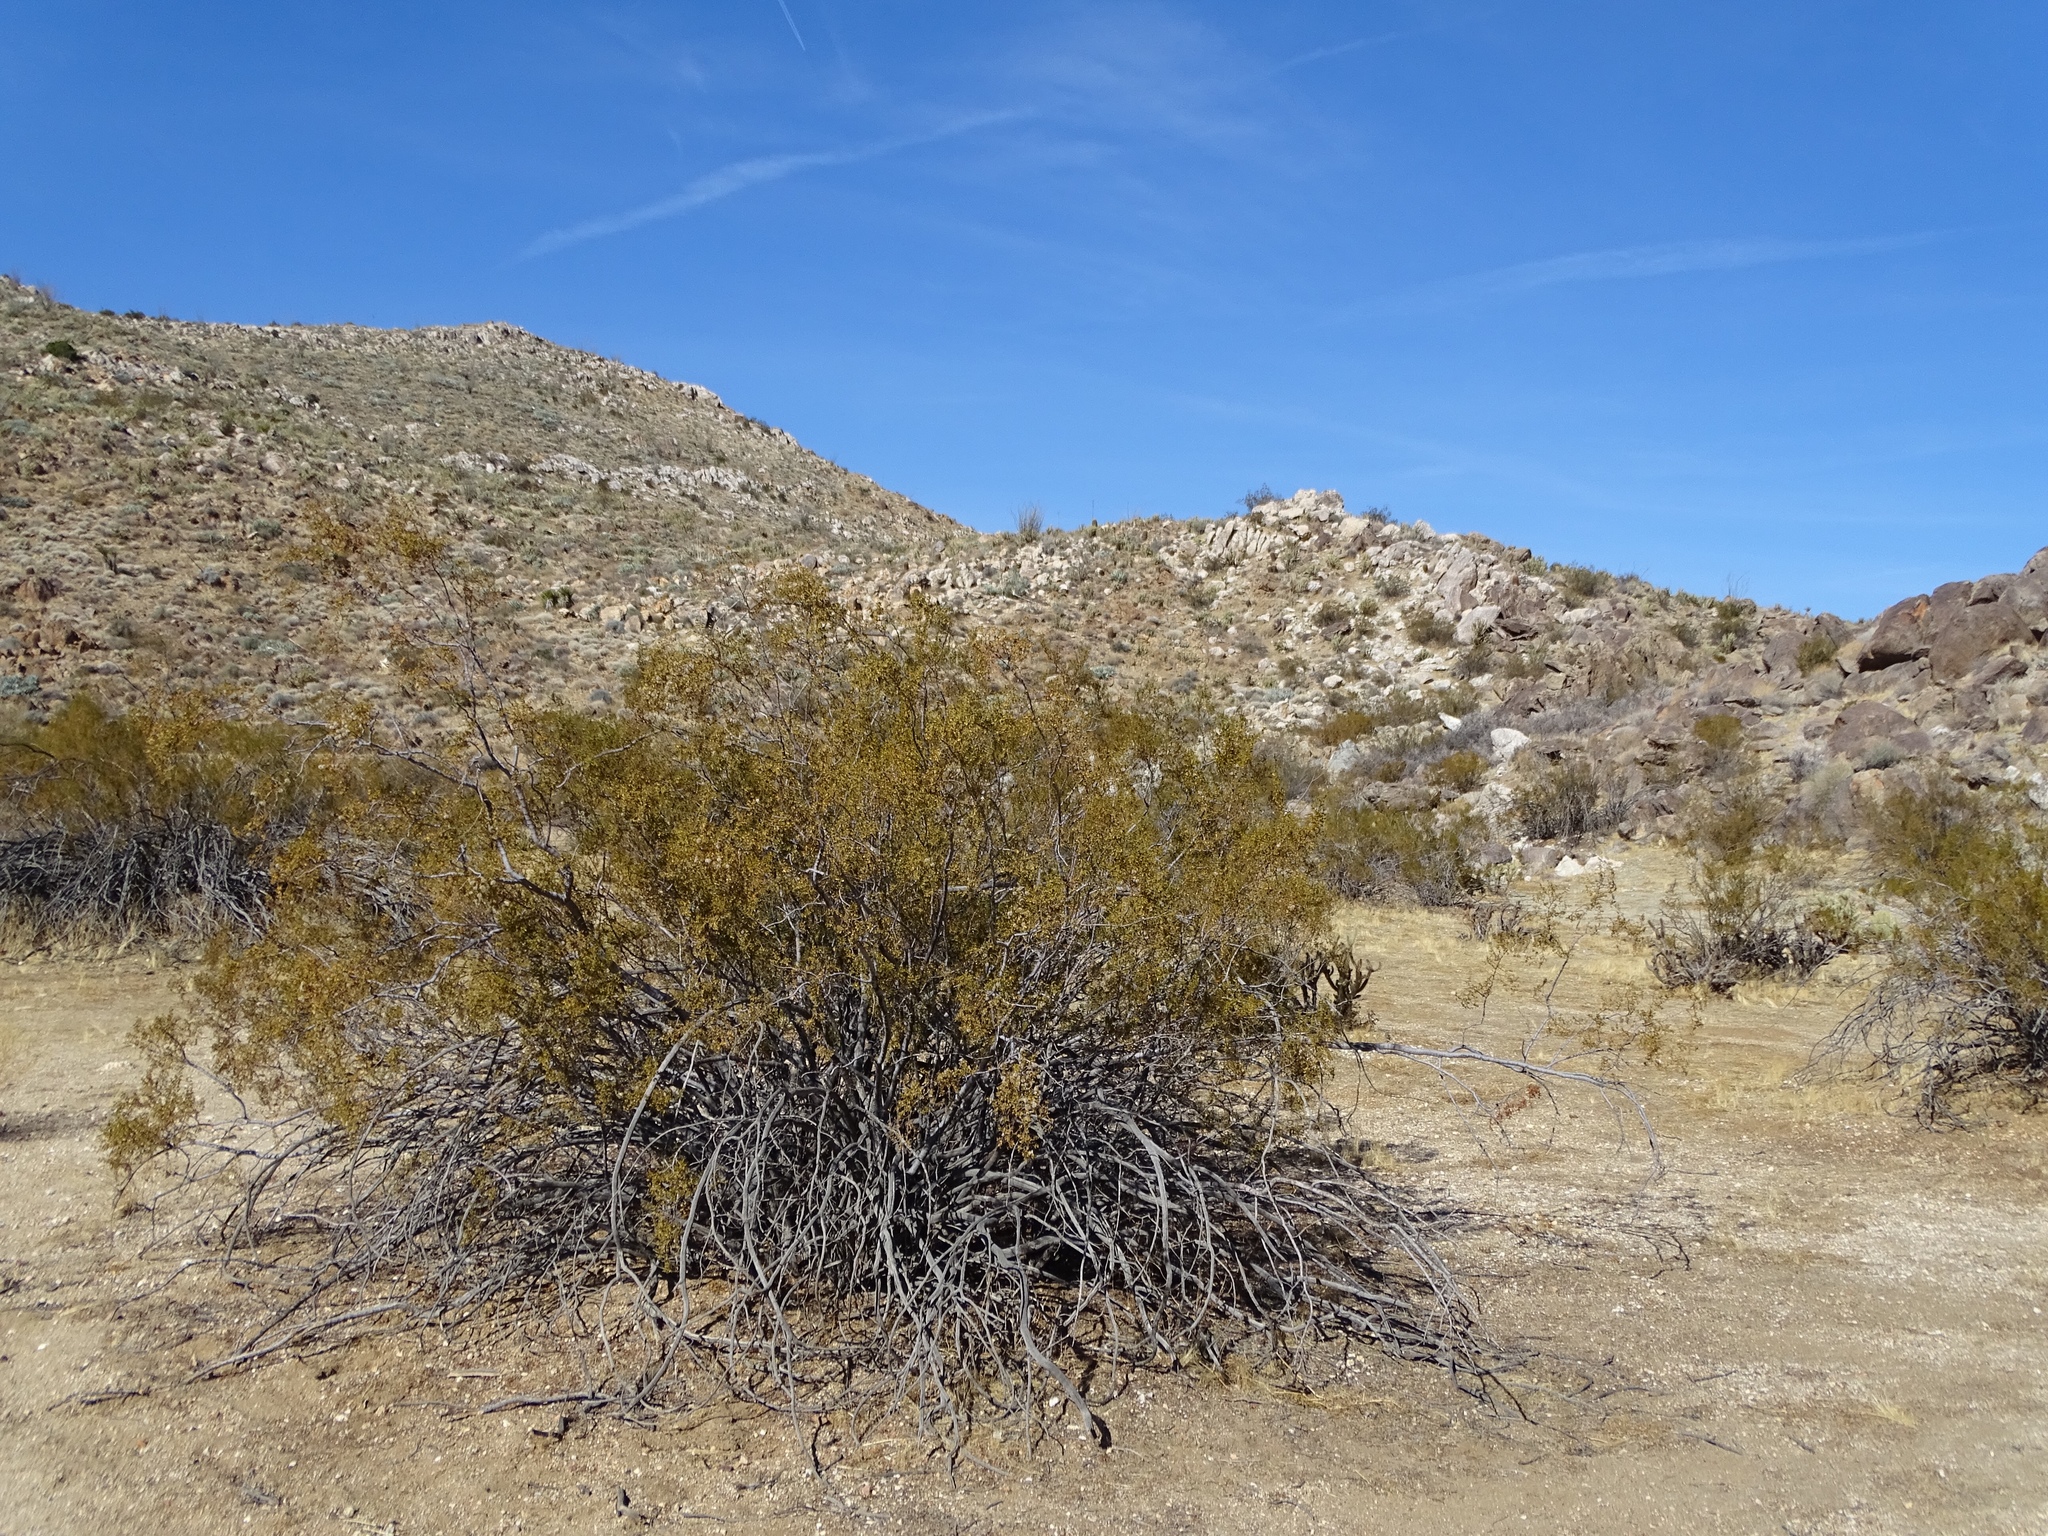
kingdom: Plantae
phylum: Tracheophyta
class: Magnoliopsida
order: Zygophyllales
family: Zygophyllaceae
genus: Larrea
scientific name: Larrea tridentata
